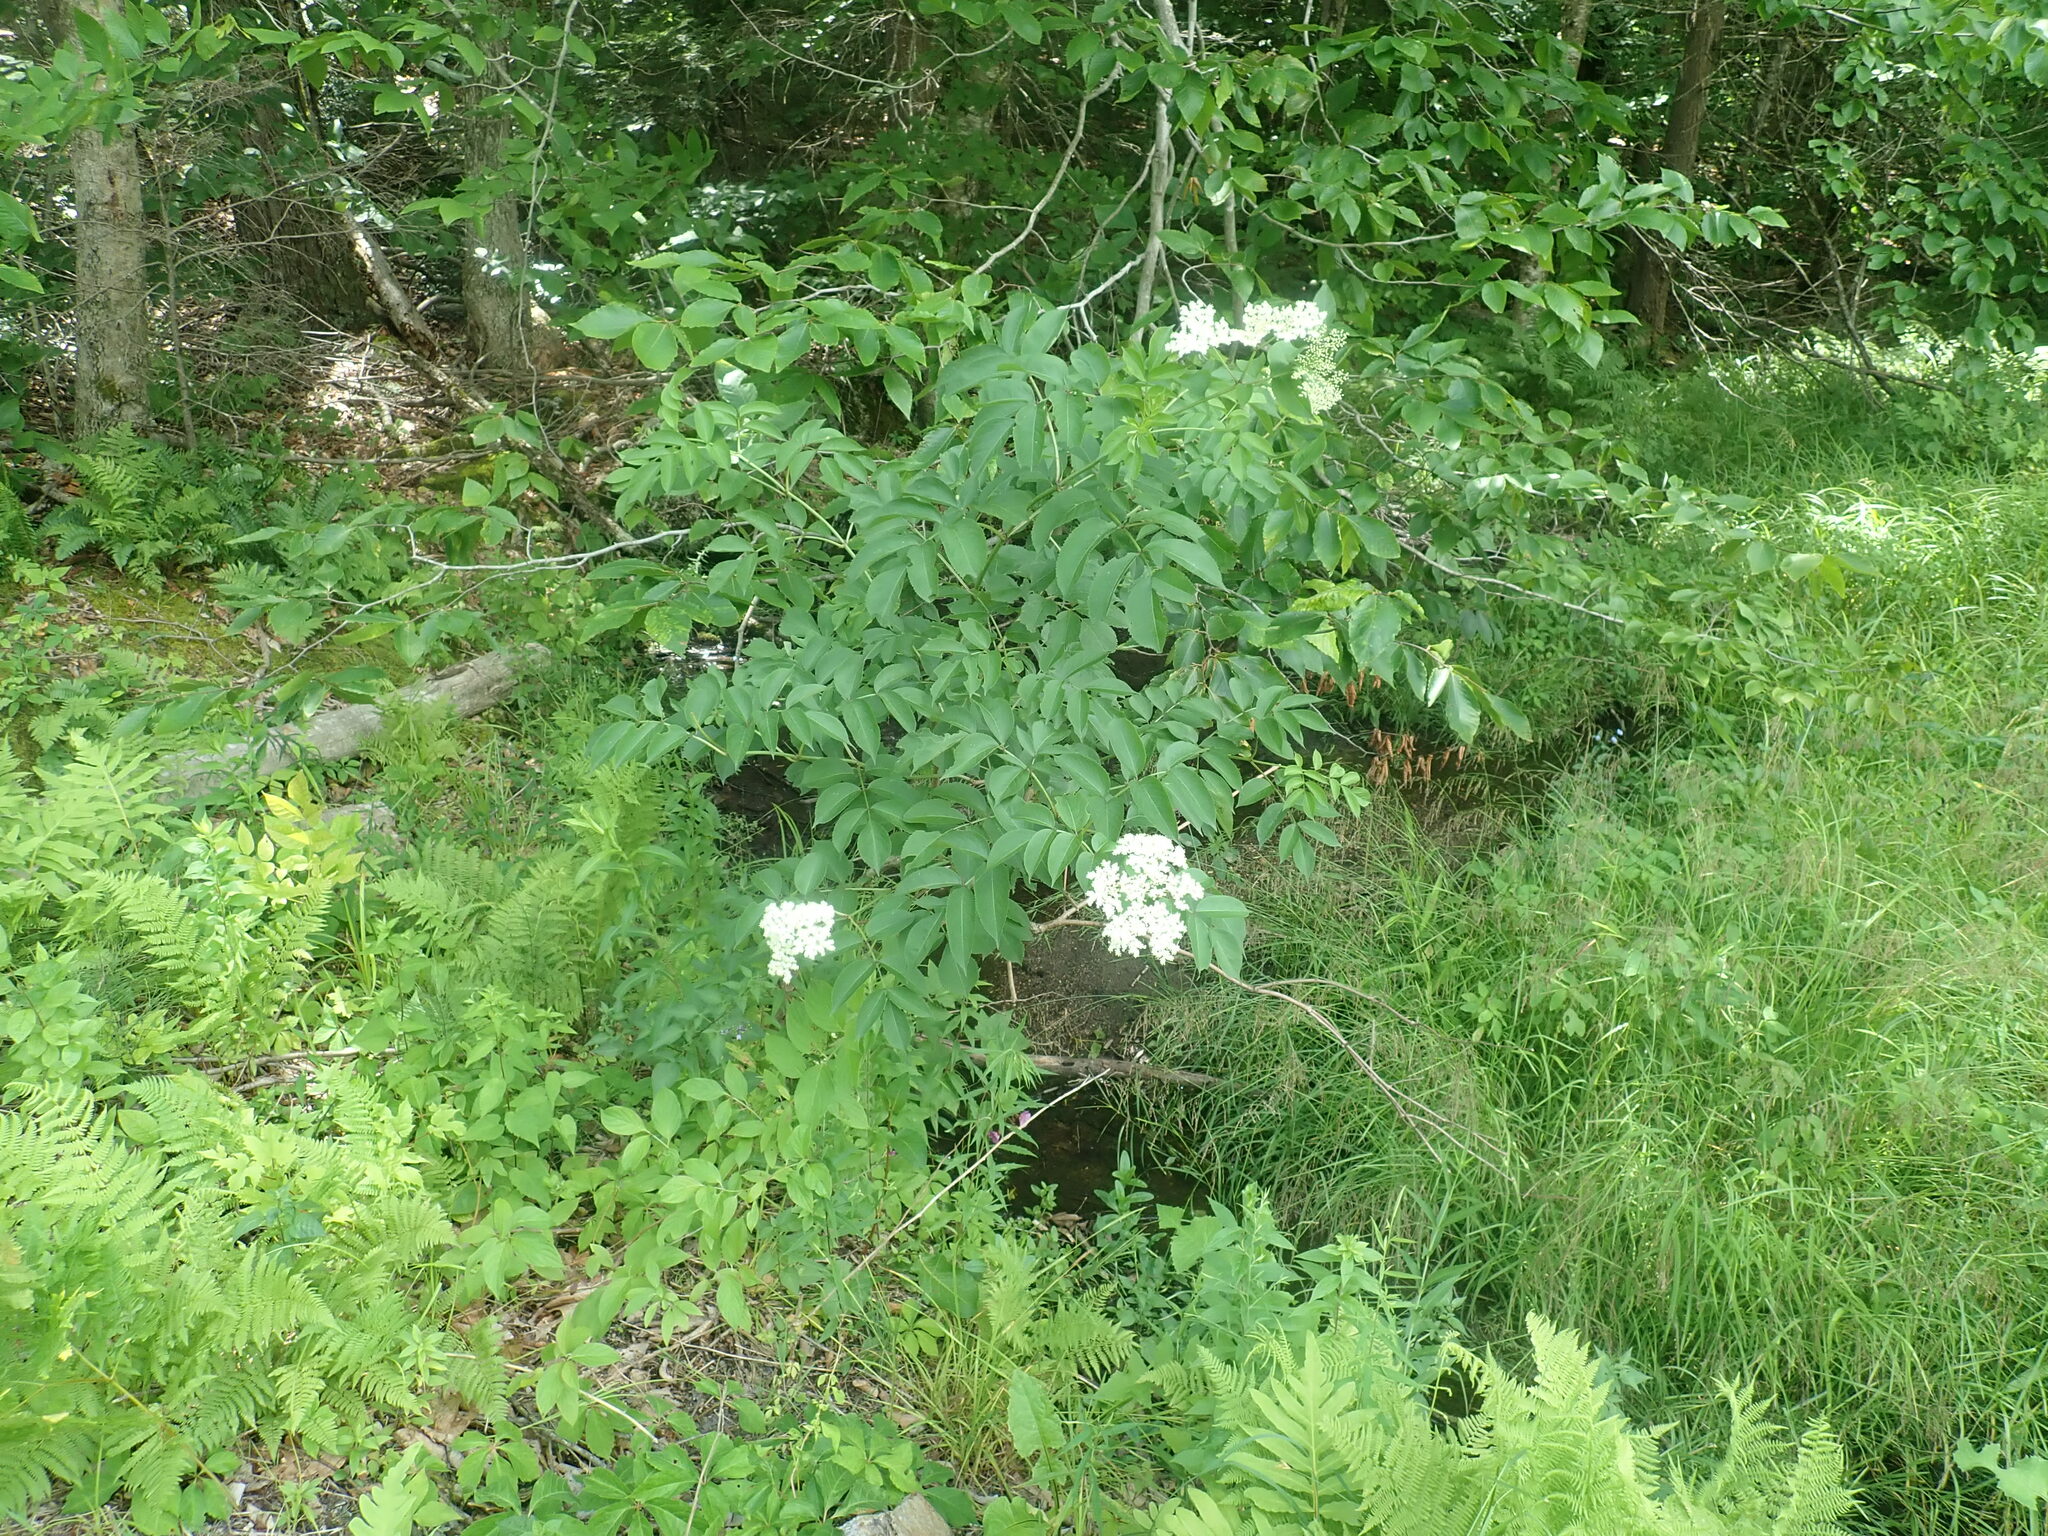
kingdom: Plantae
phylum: Tracheophyta
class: Magnoliopsida
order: Dipsacales
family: Viburnaceae
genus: Sambucus
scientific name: Sambucus canadensis
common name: American elder
